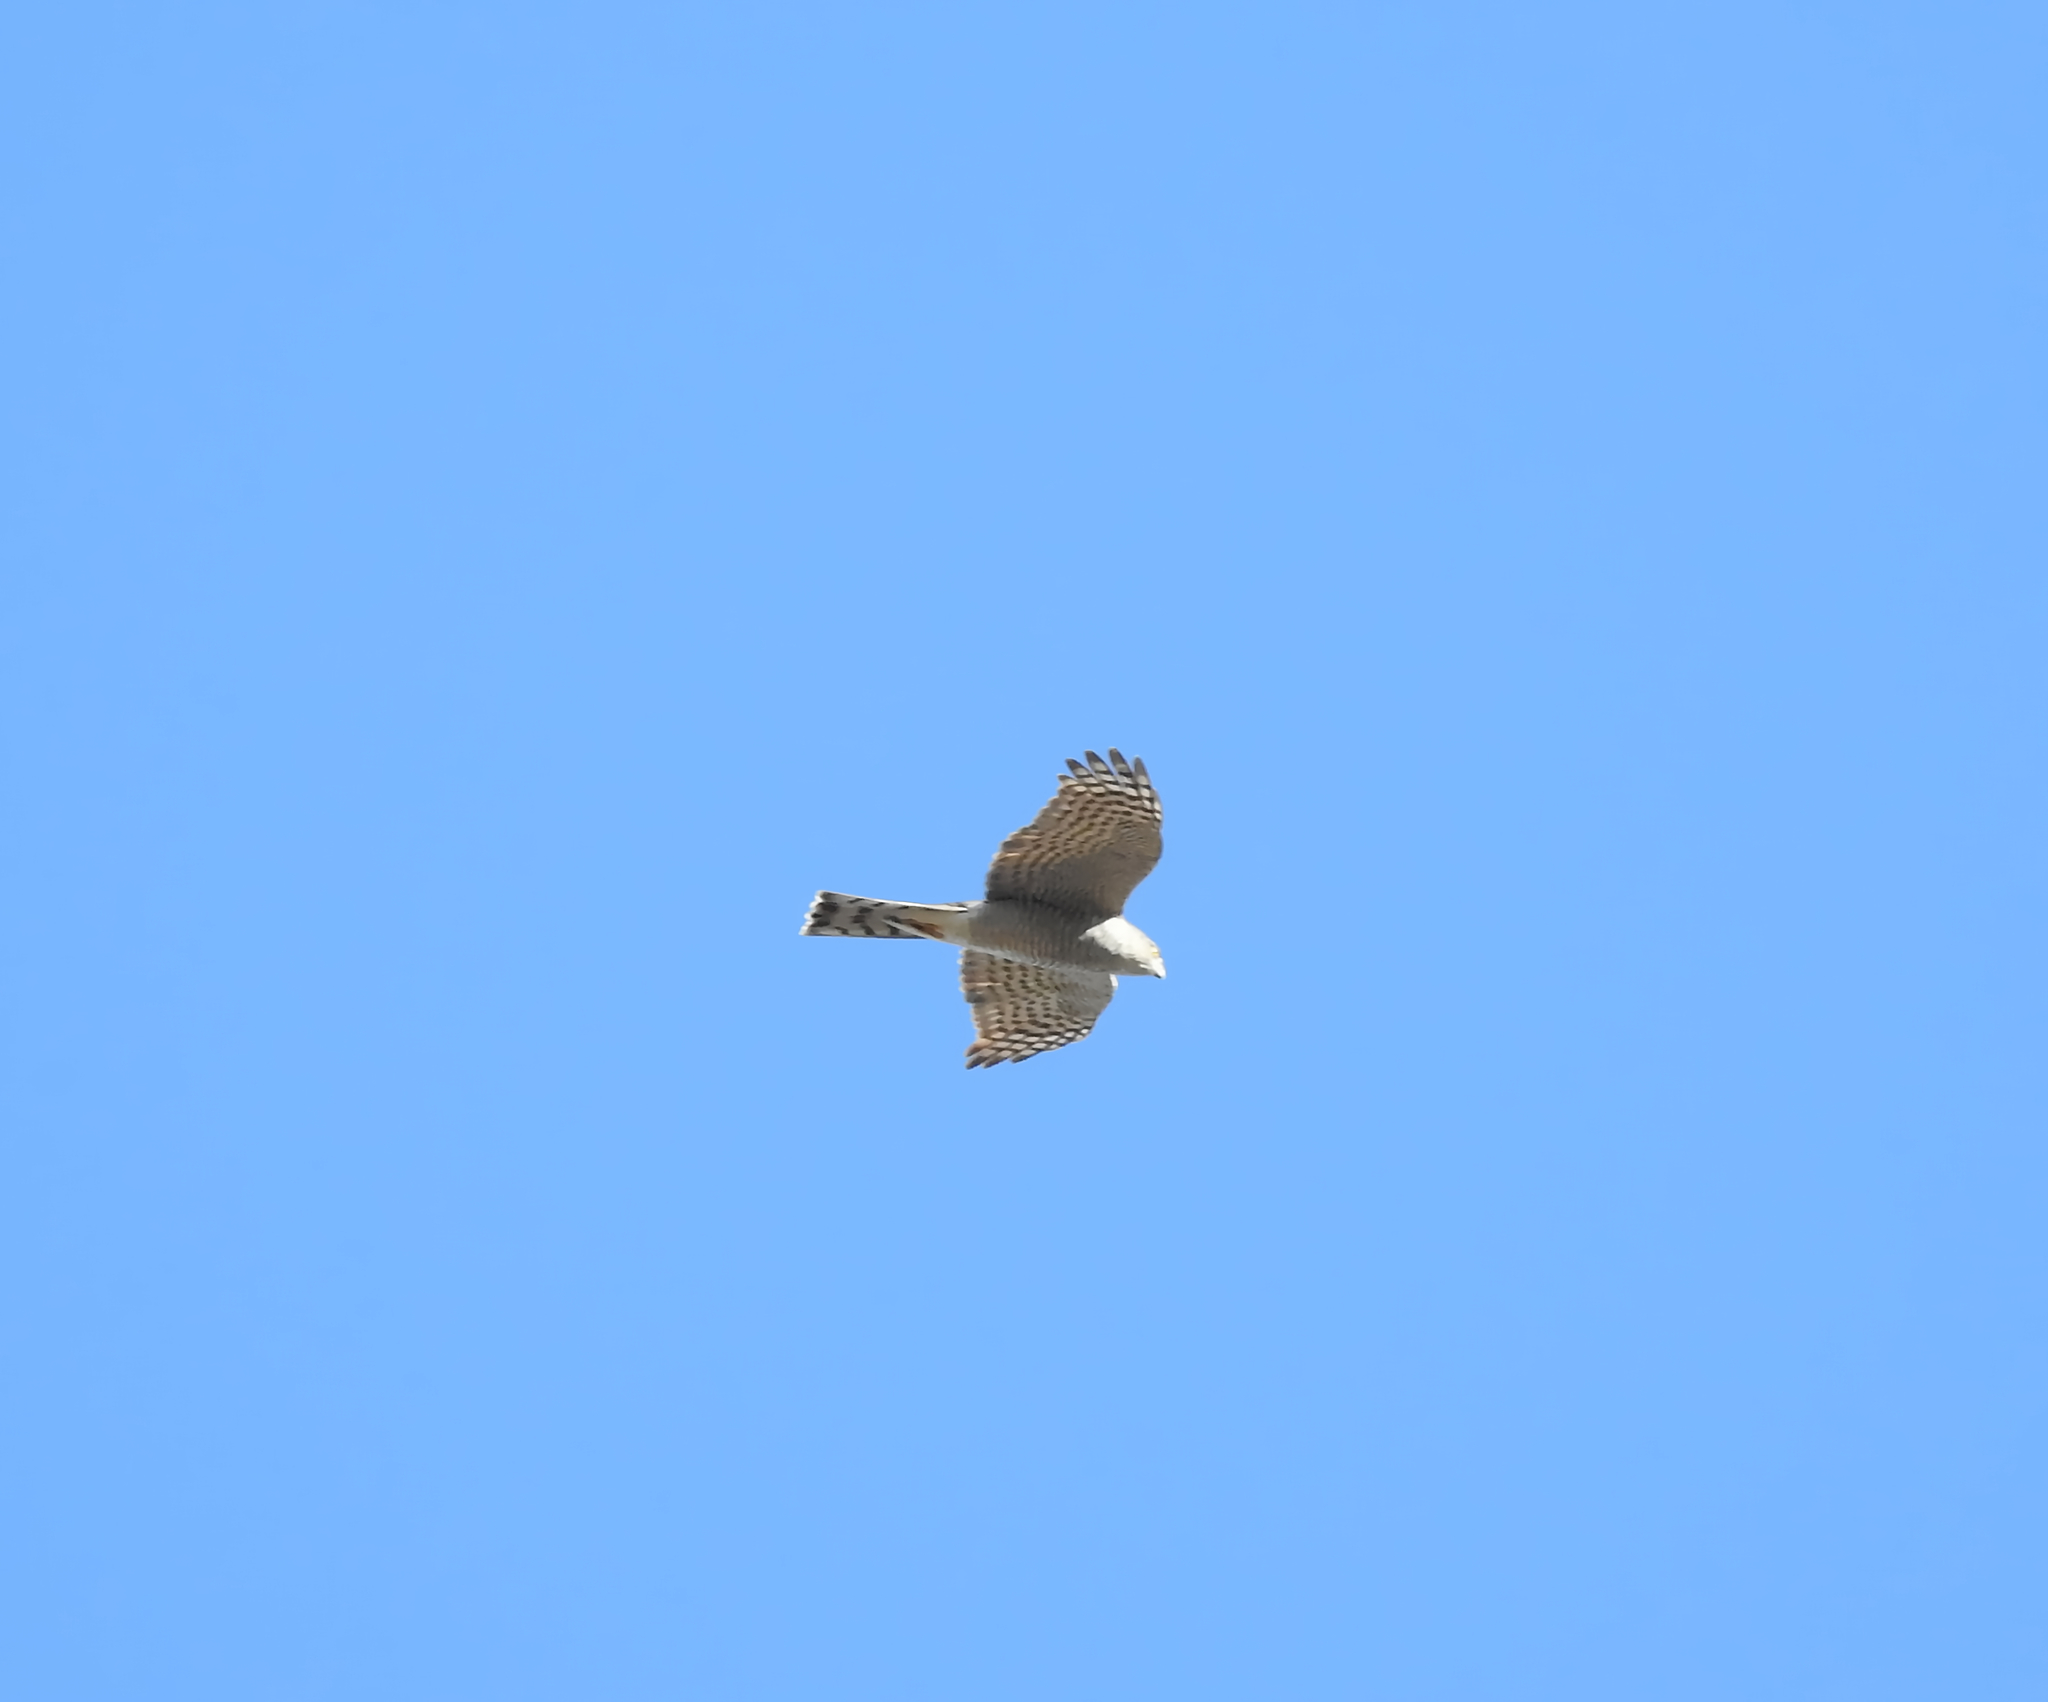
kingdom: Animalia
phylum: Chordata
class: Aves
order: Accipitriformes
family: Accipitridae
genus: Accipiter
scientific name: Accipiter nisus
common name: Eurasian sparrowhawk
